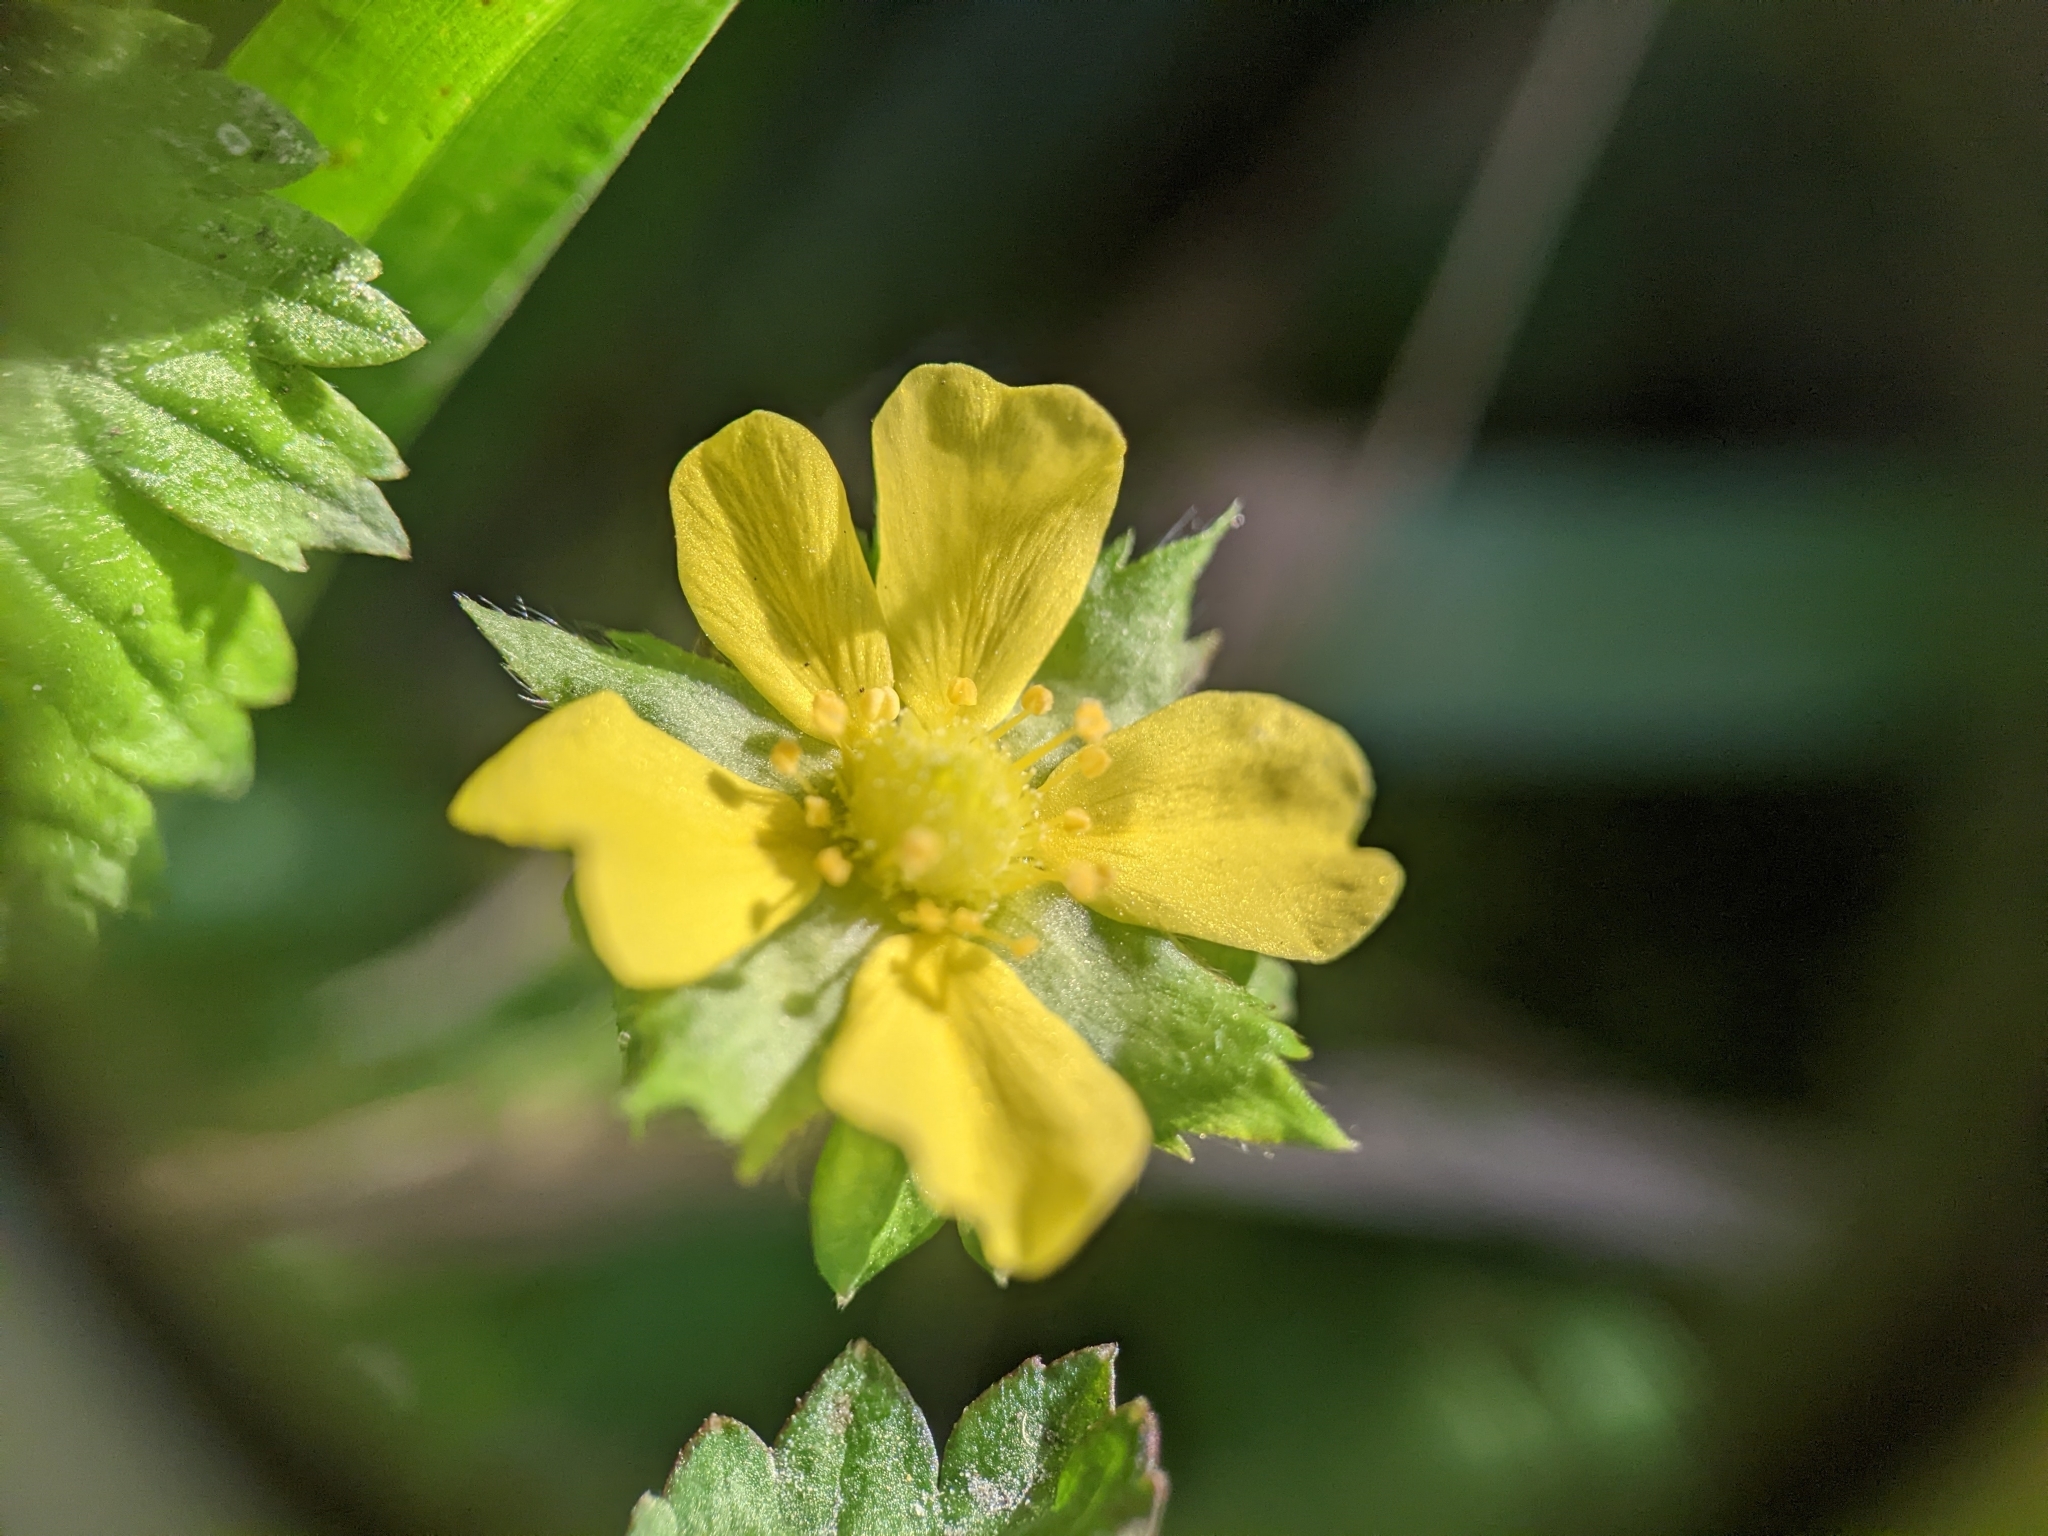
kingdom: Plantae
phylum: Tracheophyta
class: Magnoliopsida
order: Rosales
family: Rosaceae
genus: Potentilla
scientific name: Potentilla indica
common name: Yellow-flowered strawberry
